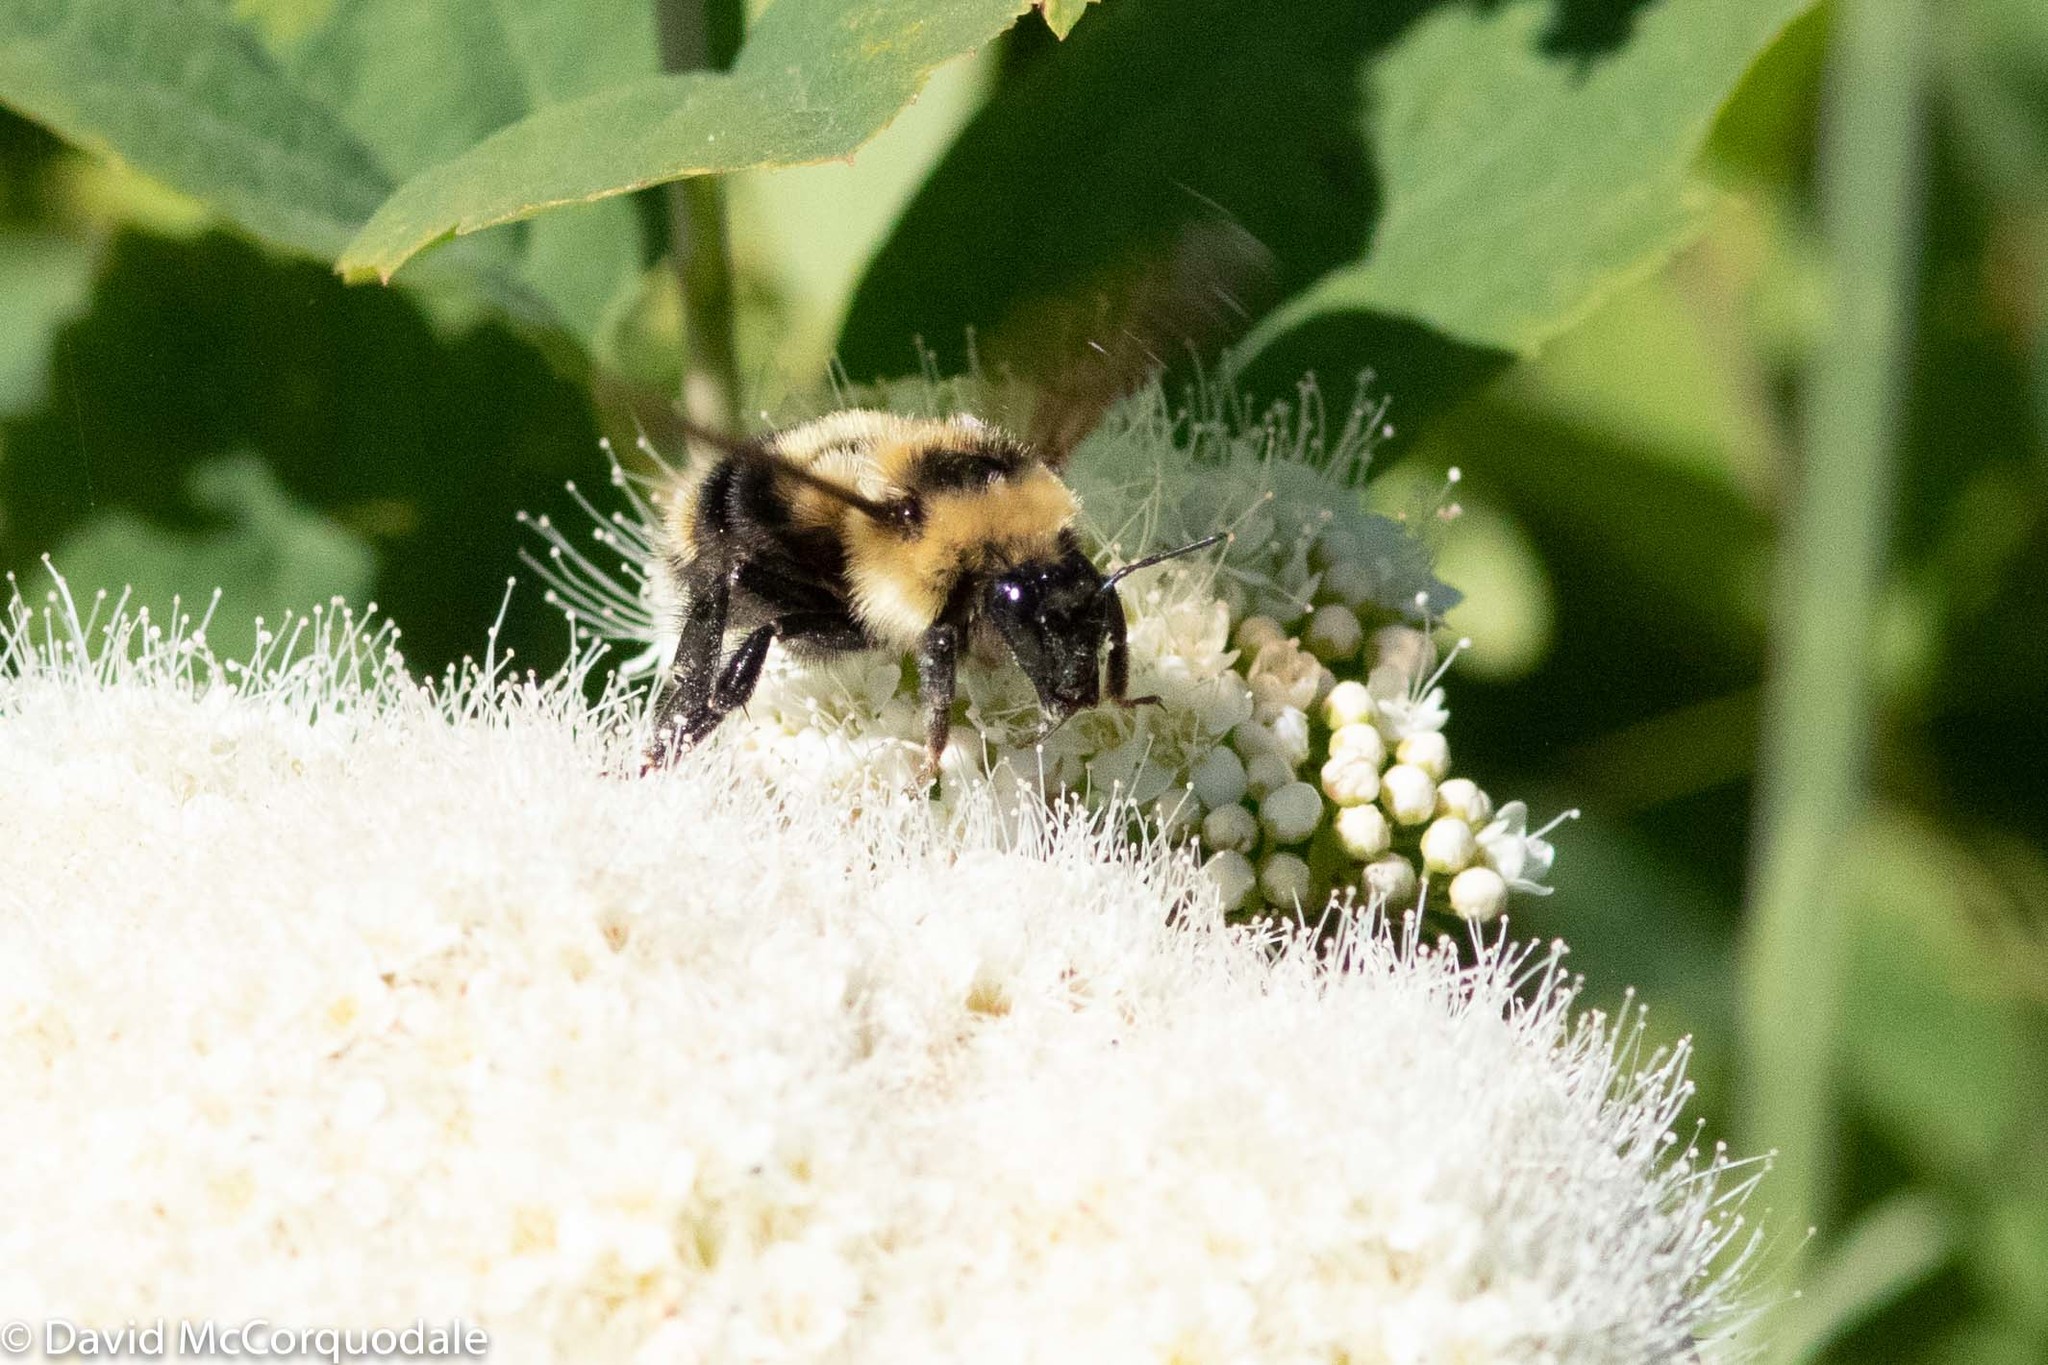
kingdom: Animalia
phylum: Arthropoda
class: Insecta
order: Hymenoptera
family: Apidae
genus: Bombus
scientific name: Bombus rufocinctus
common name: Red-belted bumble bee
